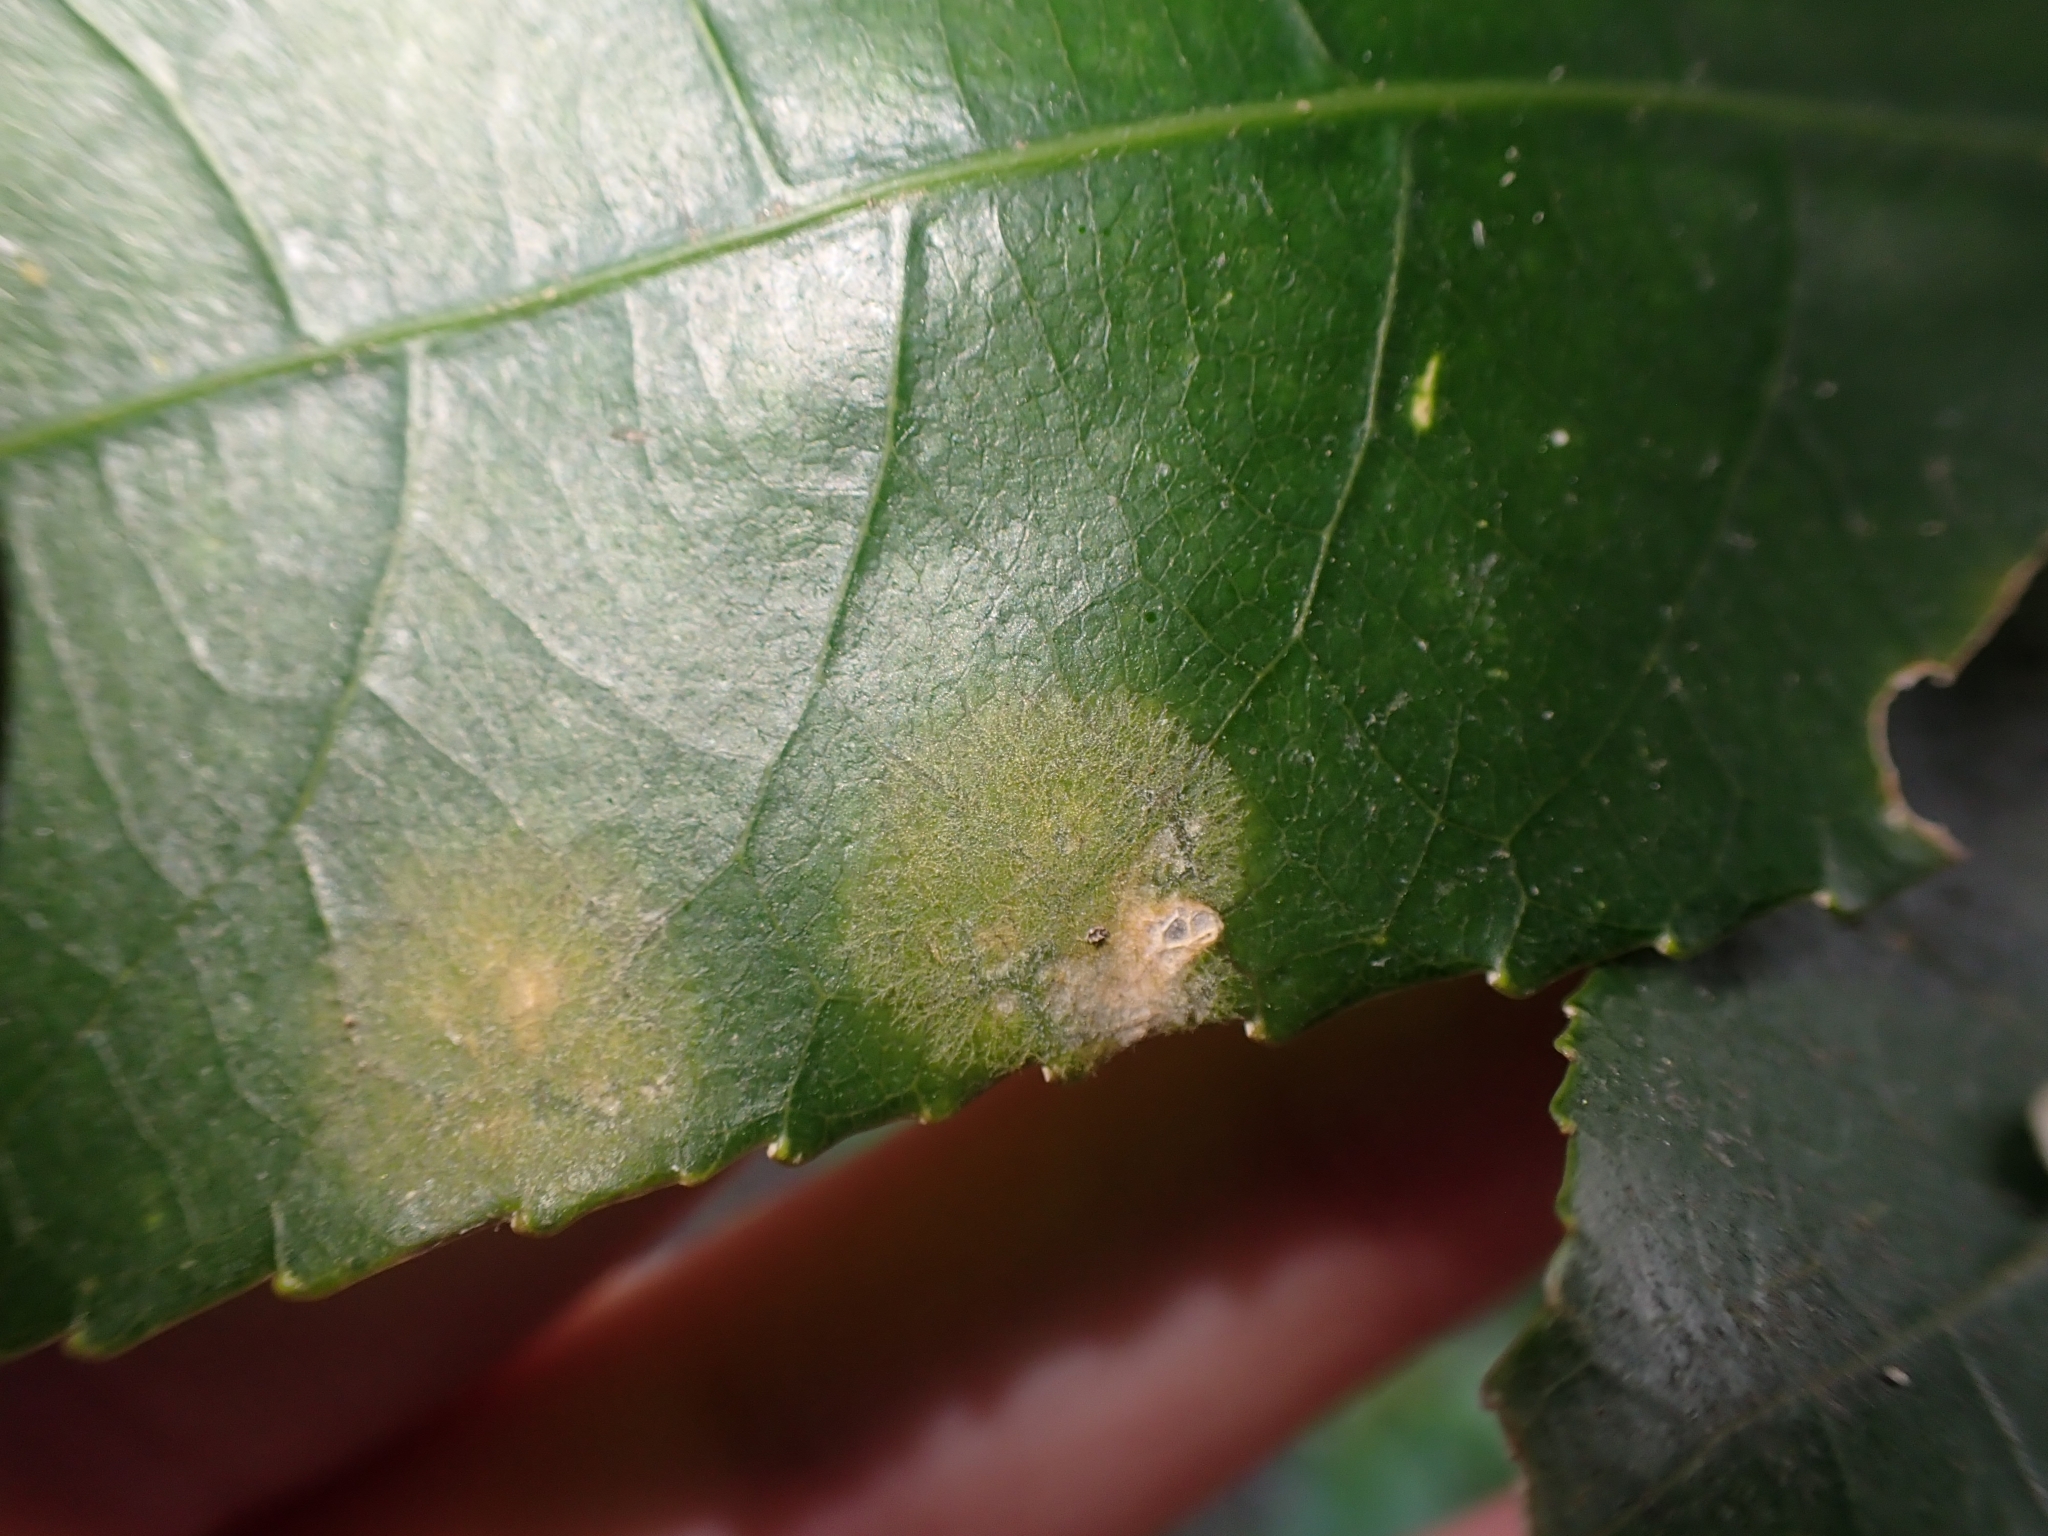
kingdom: Plantae
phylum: Chlorophyta
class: Ulvophyceae
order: Trentepohliales
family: Trentepohliaceae
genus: Cephaleuros
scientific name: Cephaleuros
